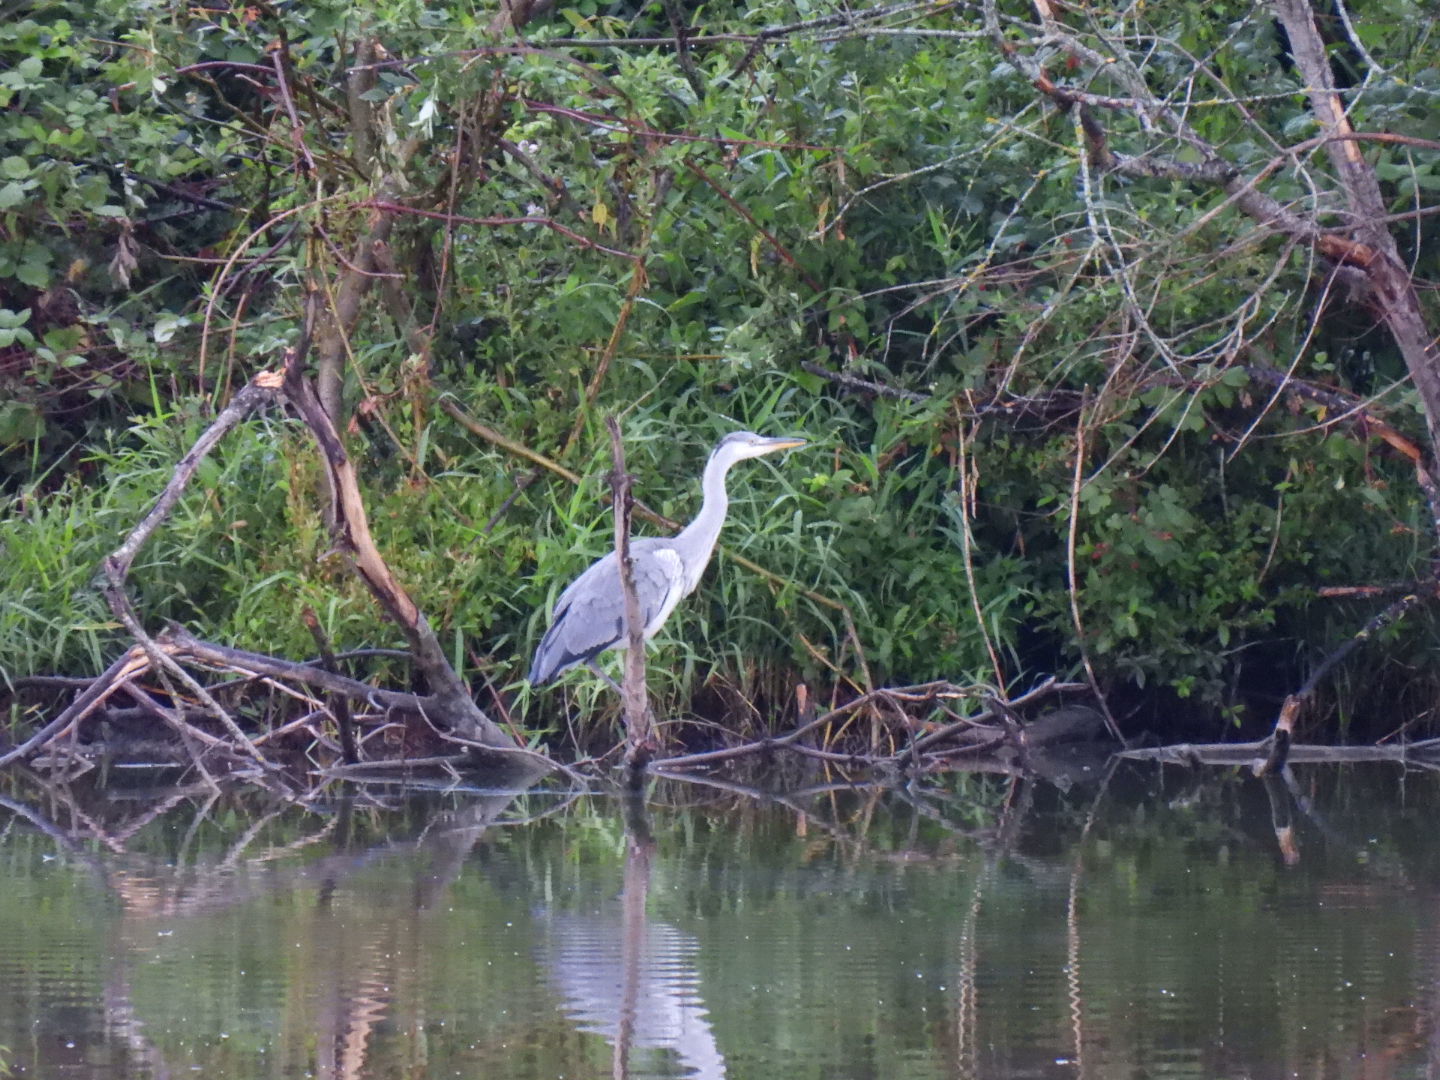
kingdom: Animalia
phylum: Chordata
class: Aves
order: Pelecaniformes
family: Ardeidae
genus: Ardea
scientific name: Ardea cinerea
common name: Grey heron
